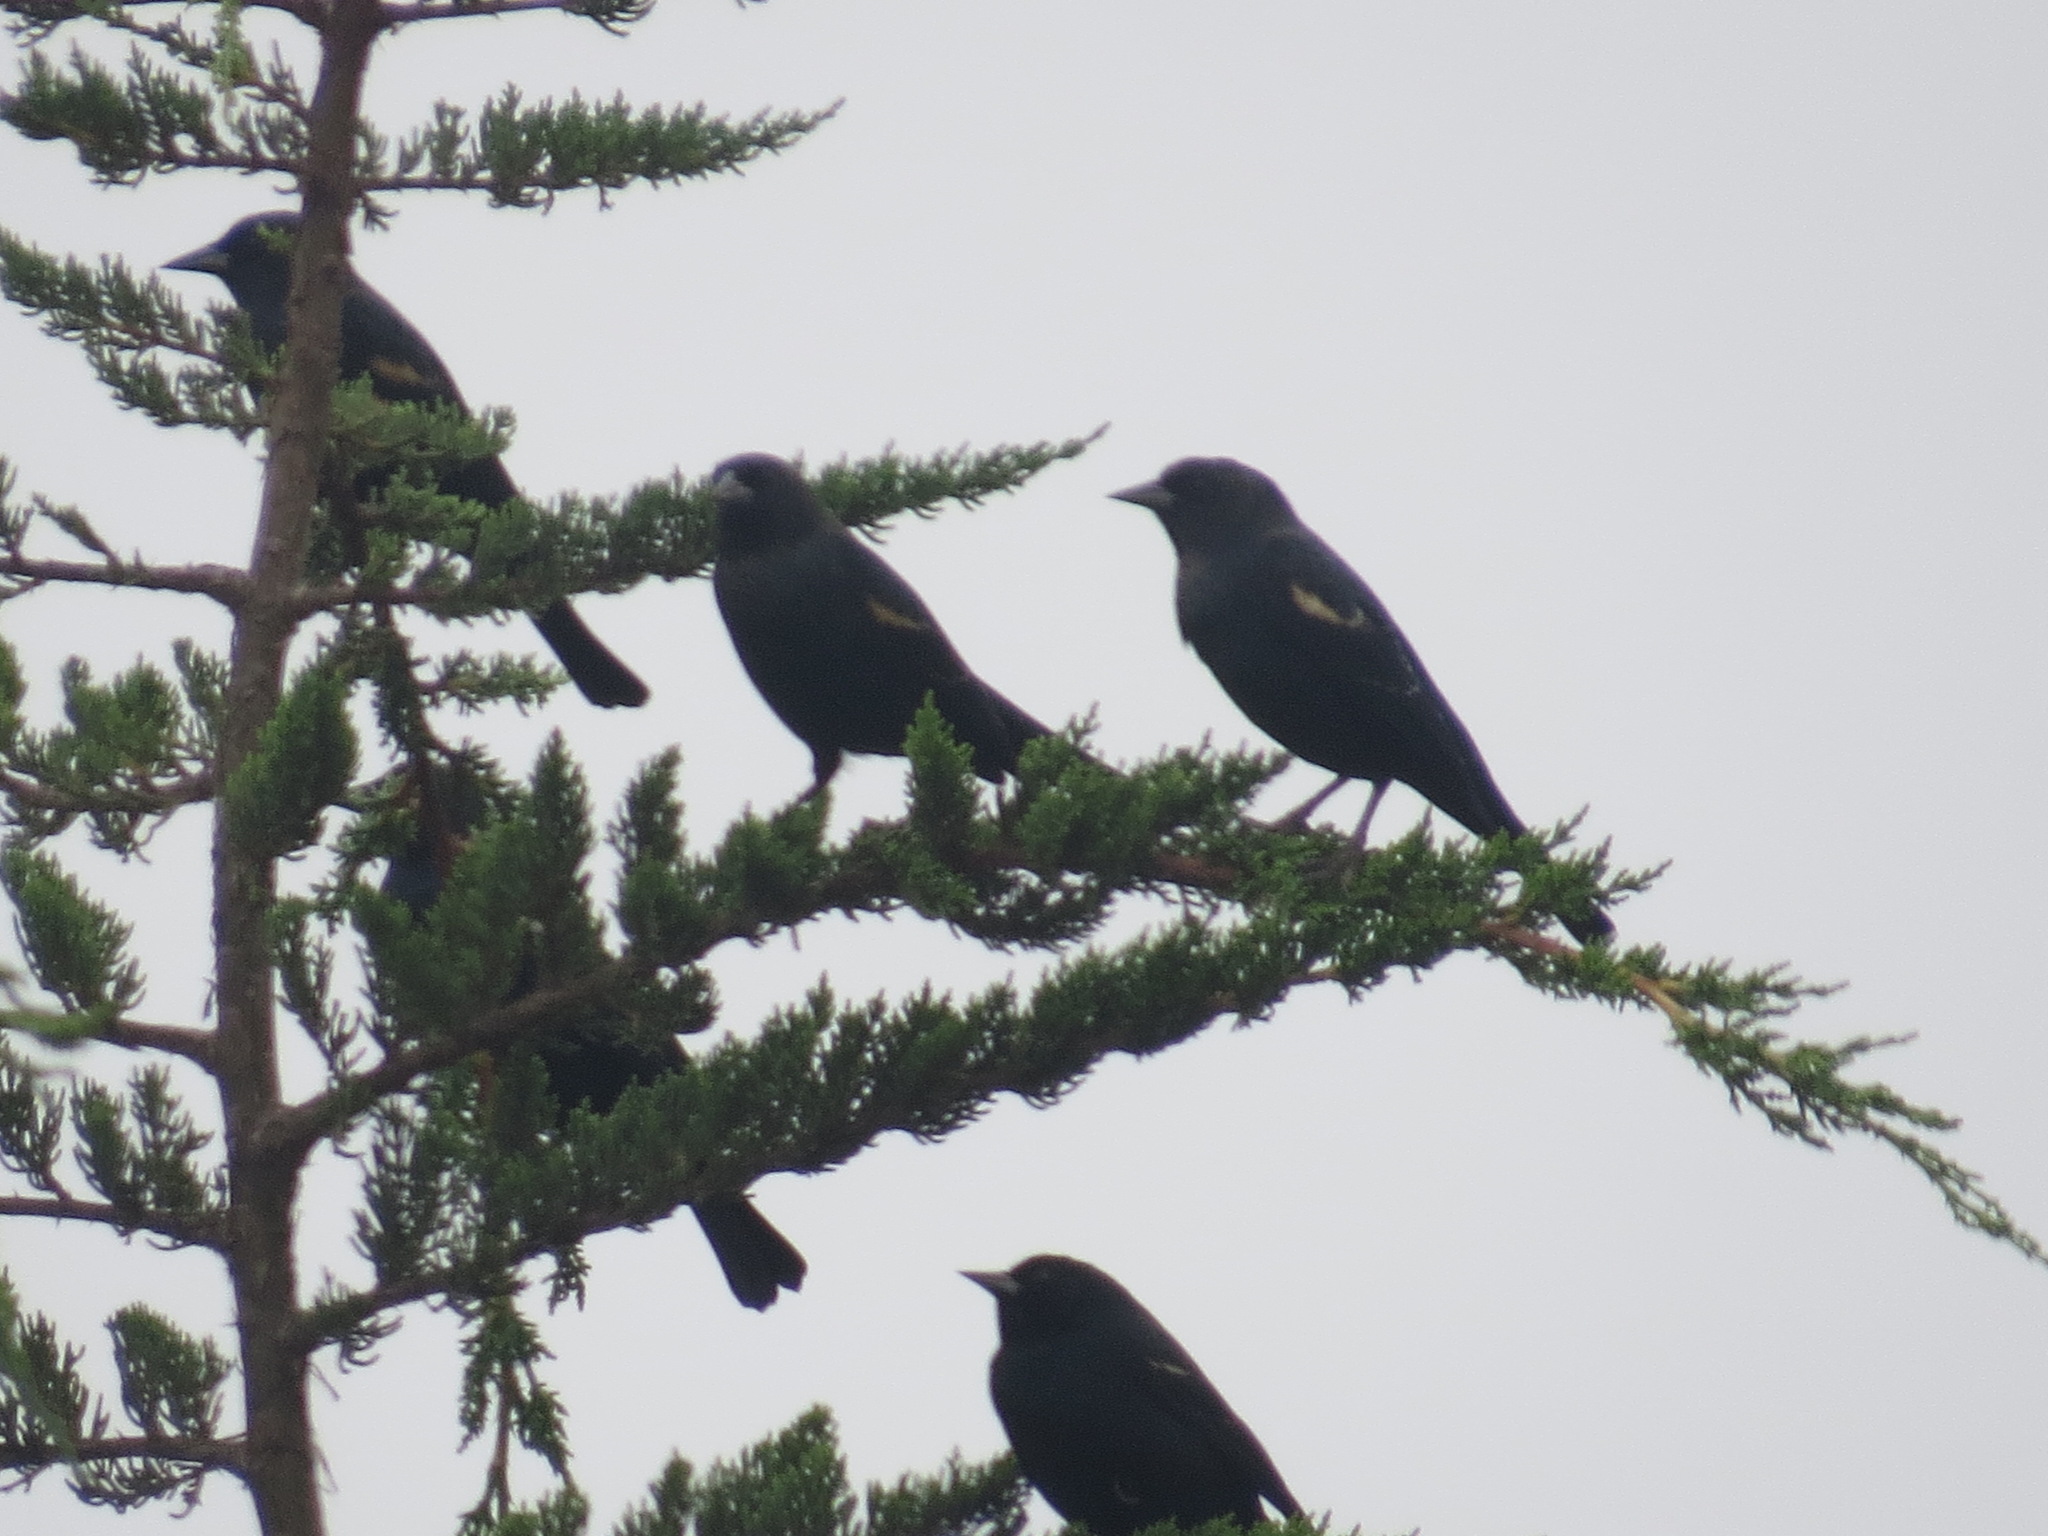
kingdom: Animalia
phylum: Chordata
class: Aves
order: Passeriformes
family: Icteridae
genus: Agelaius
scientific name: Agelaius tricolor
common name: Tricolored blackbird
